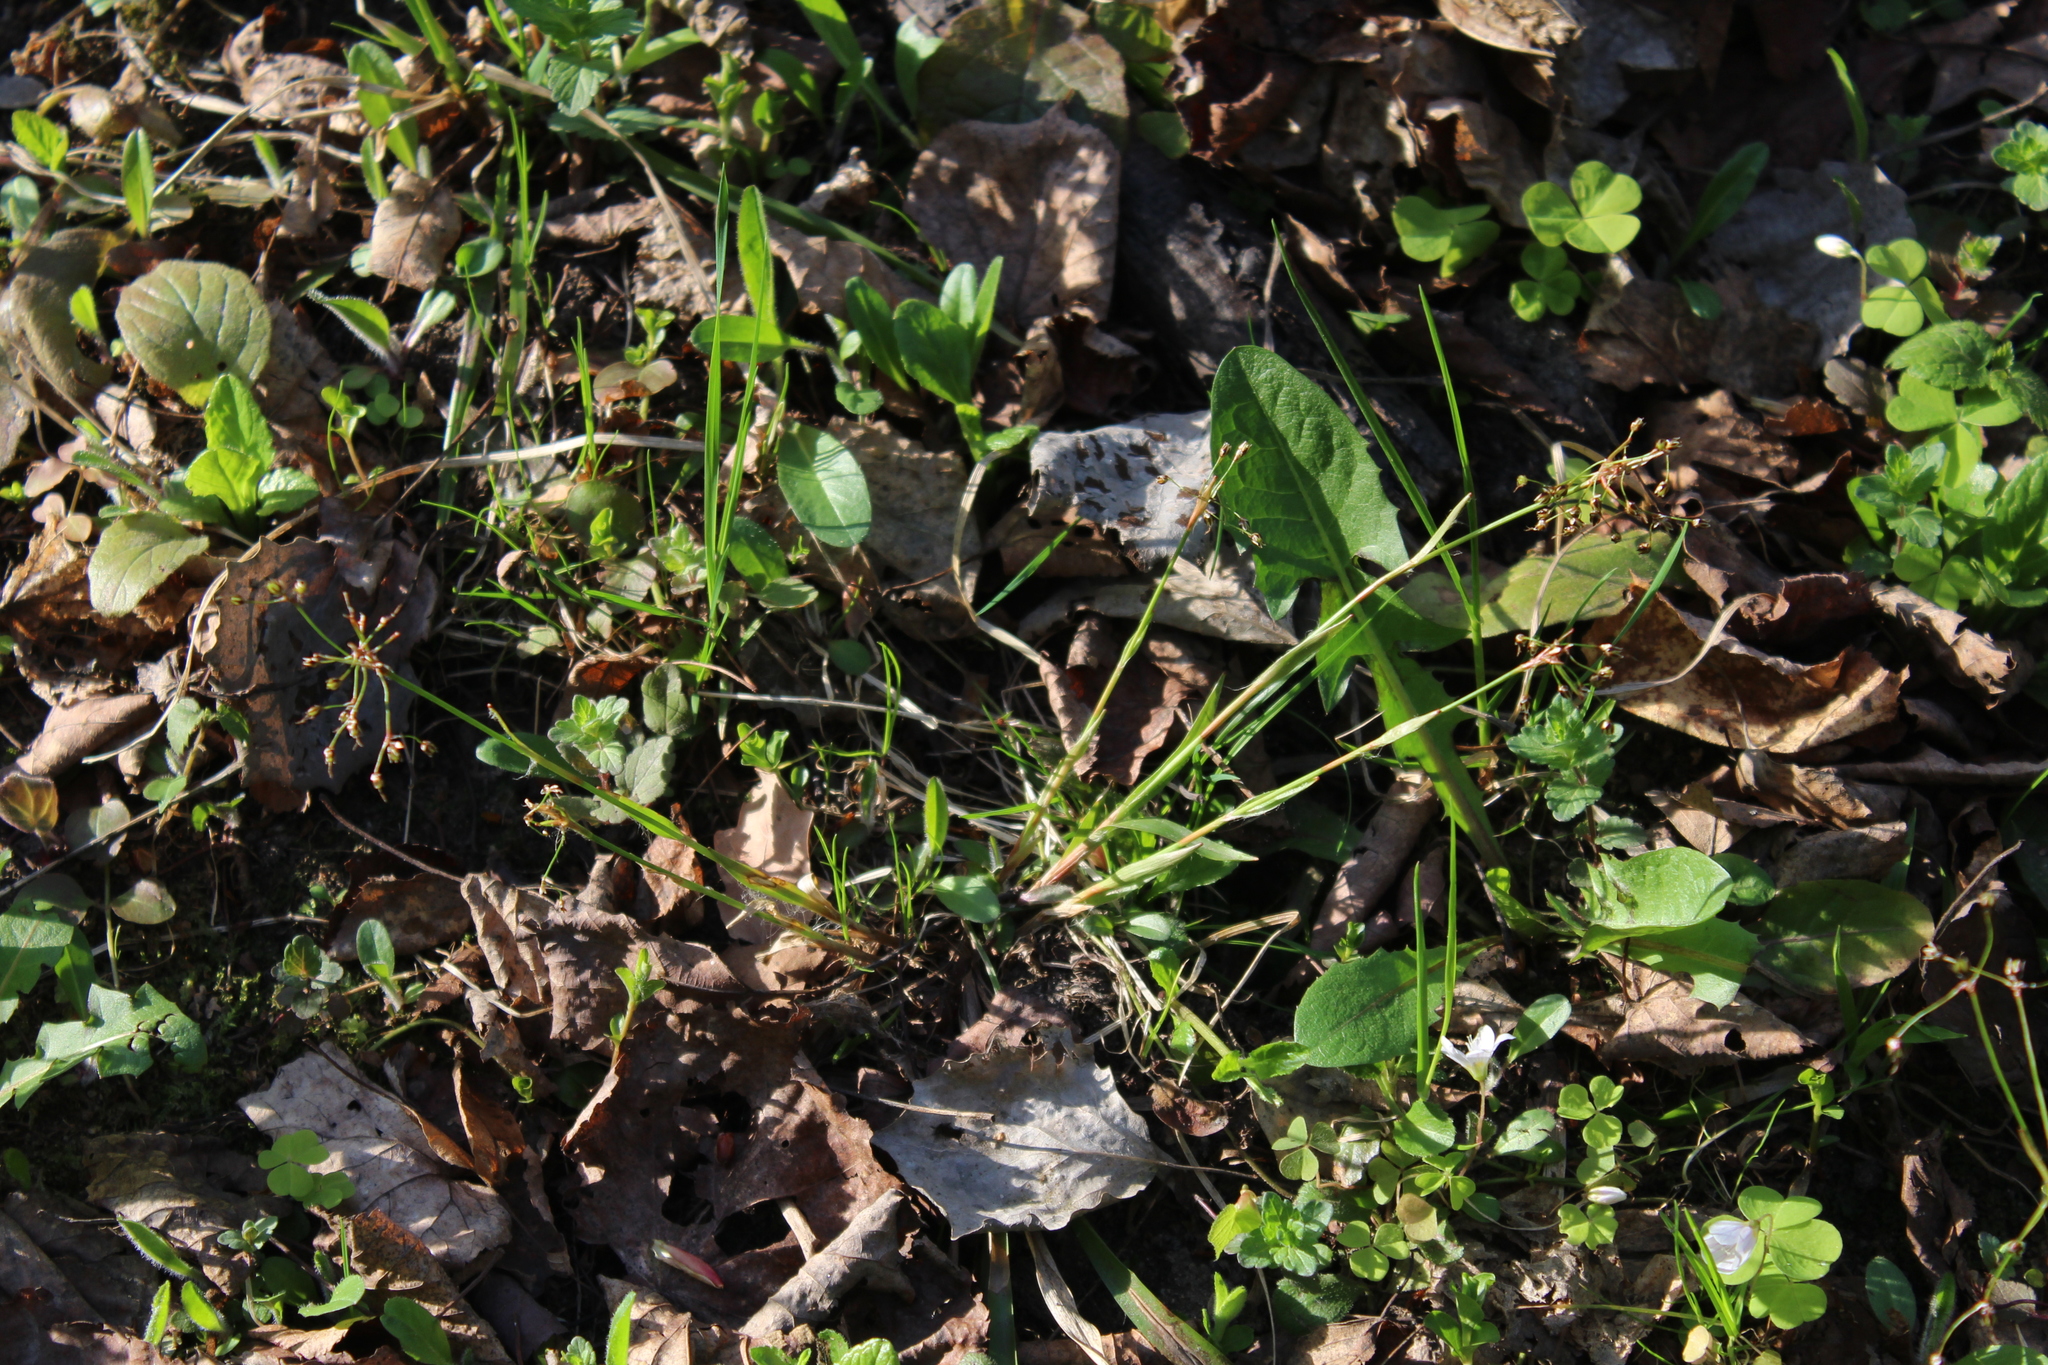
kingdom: Plantae
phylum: Tracheophyta
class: Liliopsida
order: Poales
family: Juncaceae
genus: Luzula
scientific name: Luzula pilosa
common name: Hairy wood-rush
